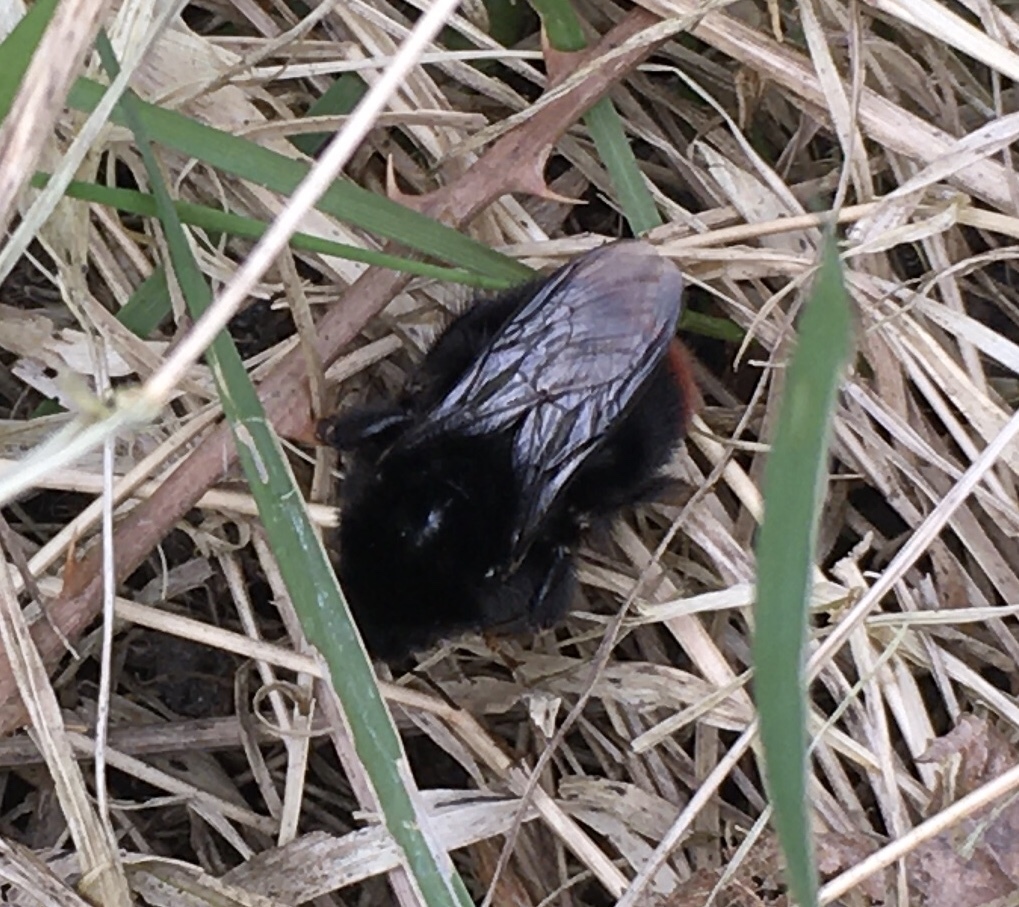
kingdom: Animalia
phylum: Arthropoda
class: Insecta
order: Hymenoptera
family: Apidae
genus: Bombus
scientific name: Bombus lapidarius
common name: Large red-tailed humble-bee
